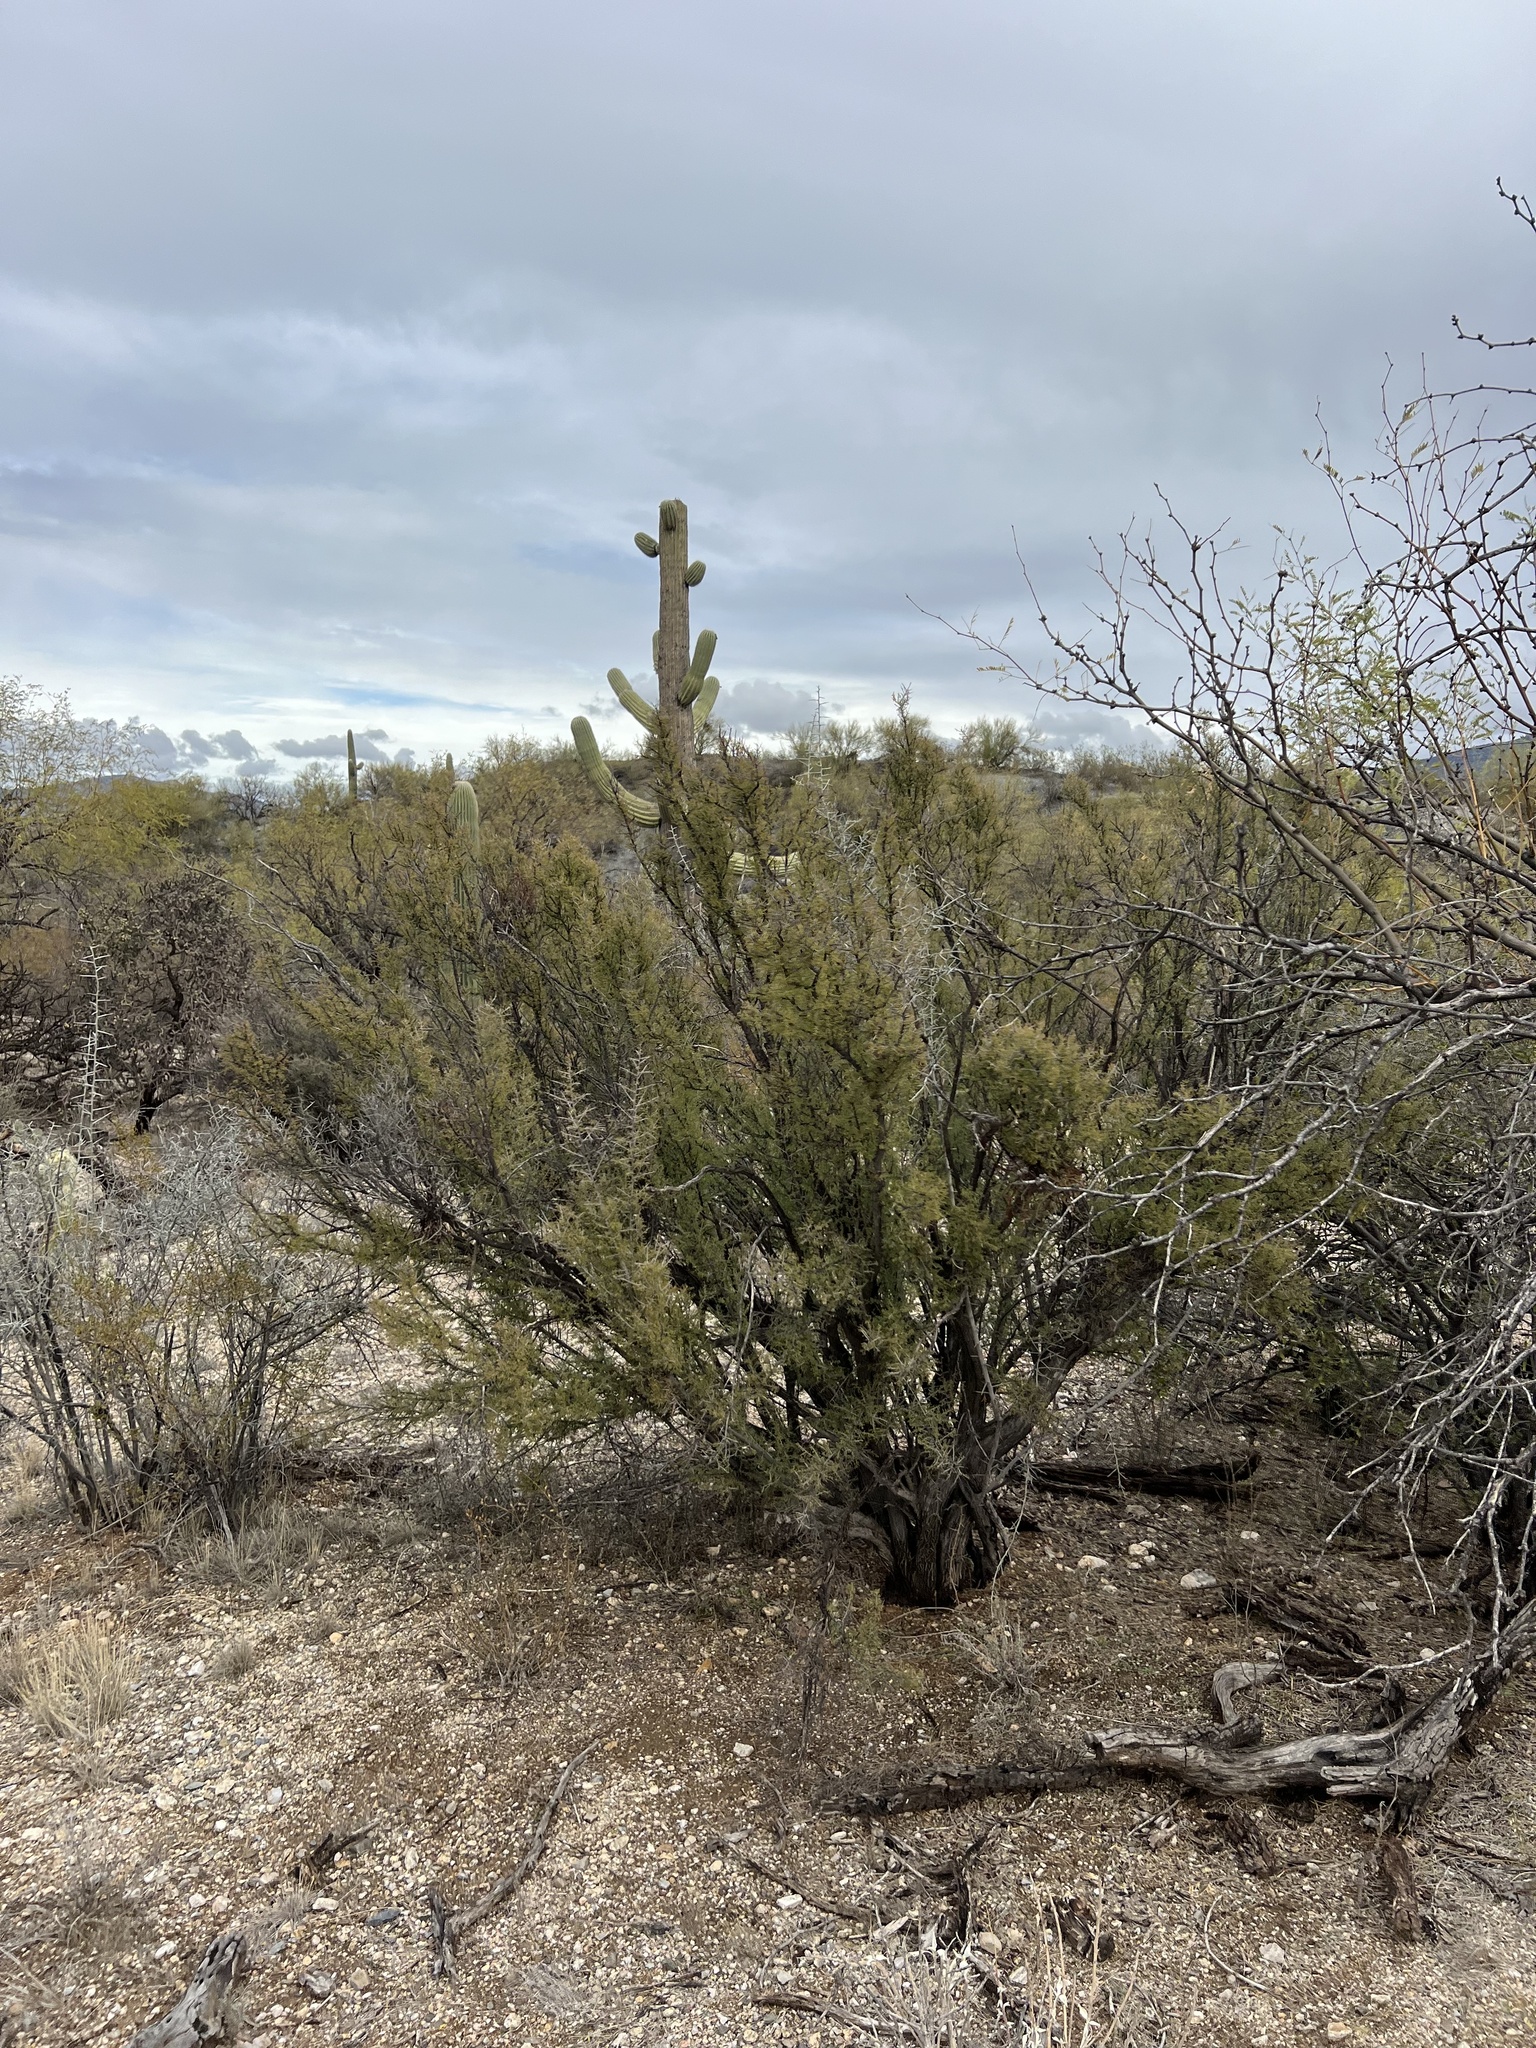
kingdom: Plantae
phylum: Tracheophyta
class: Magnoliopsida
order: Rosales
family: Rhamnaceae
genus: Condalia
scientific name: Condalia warnockii
